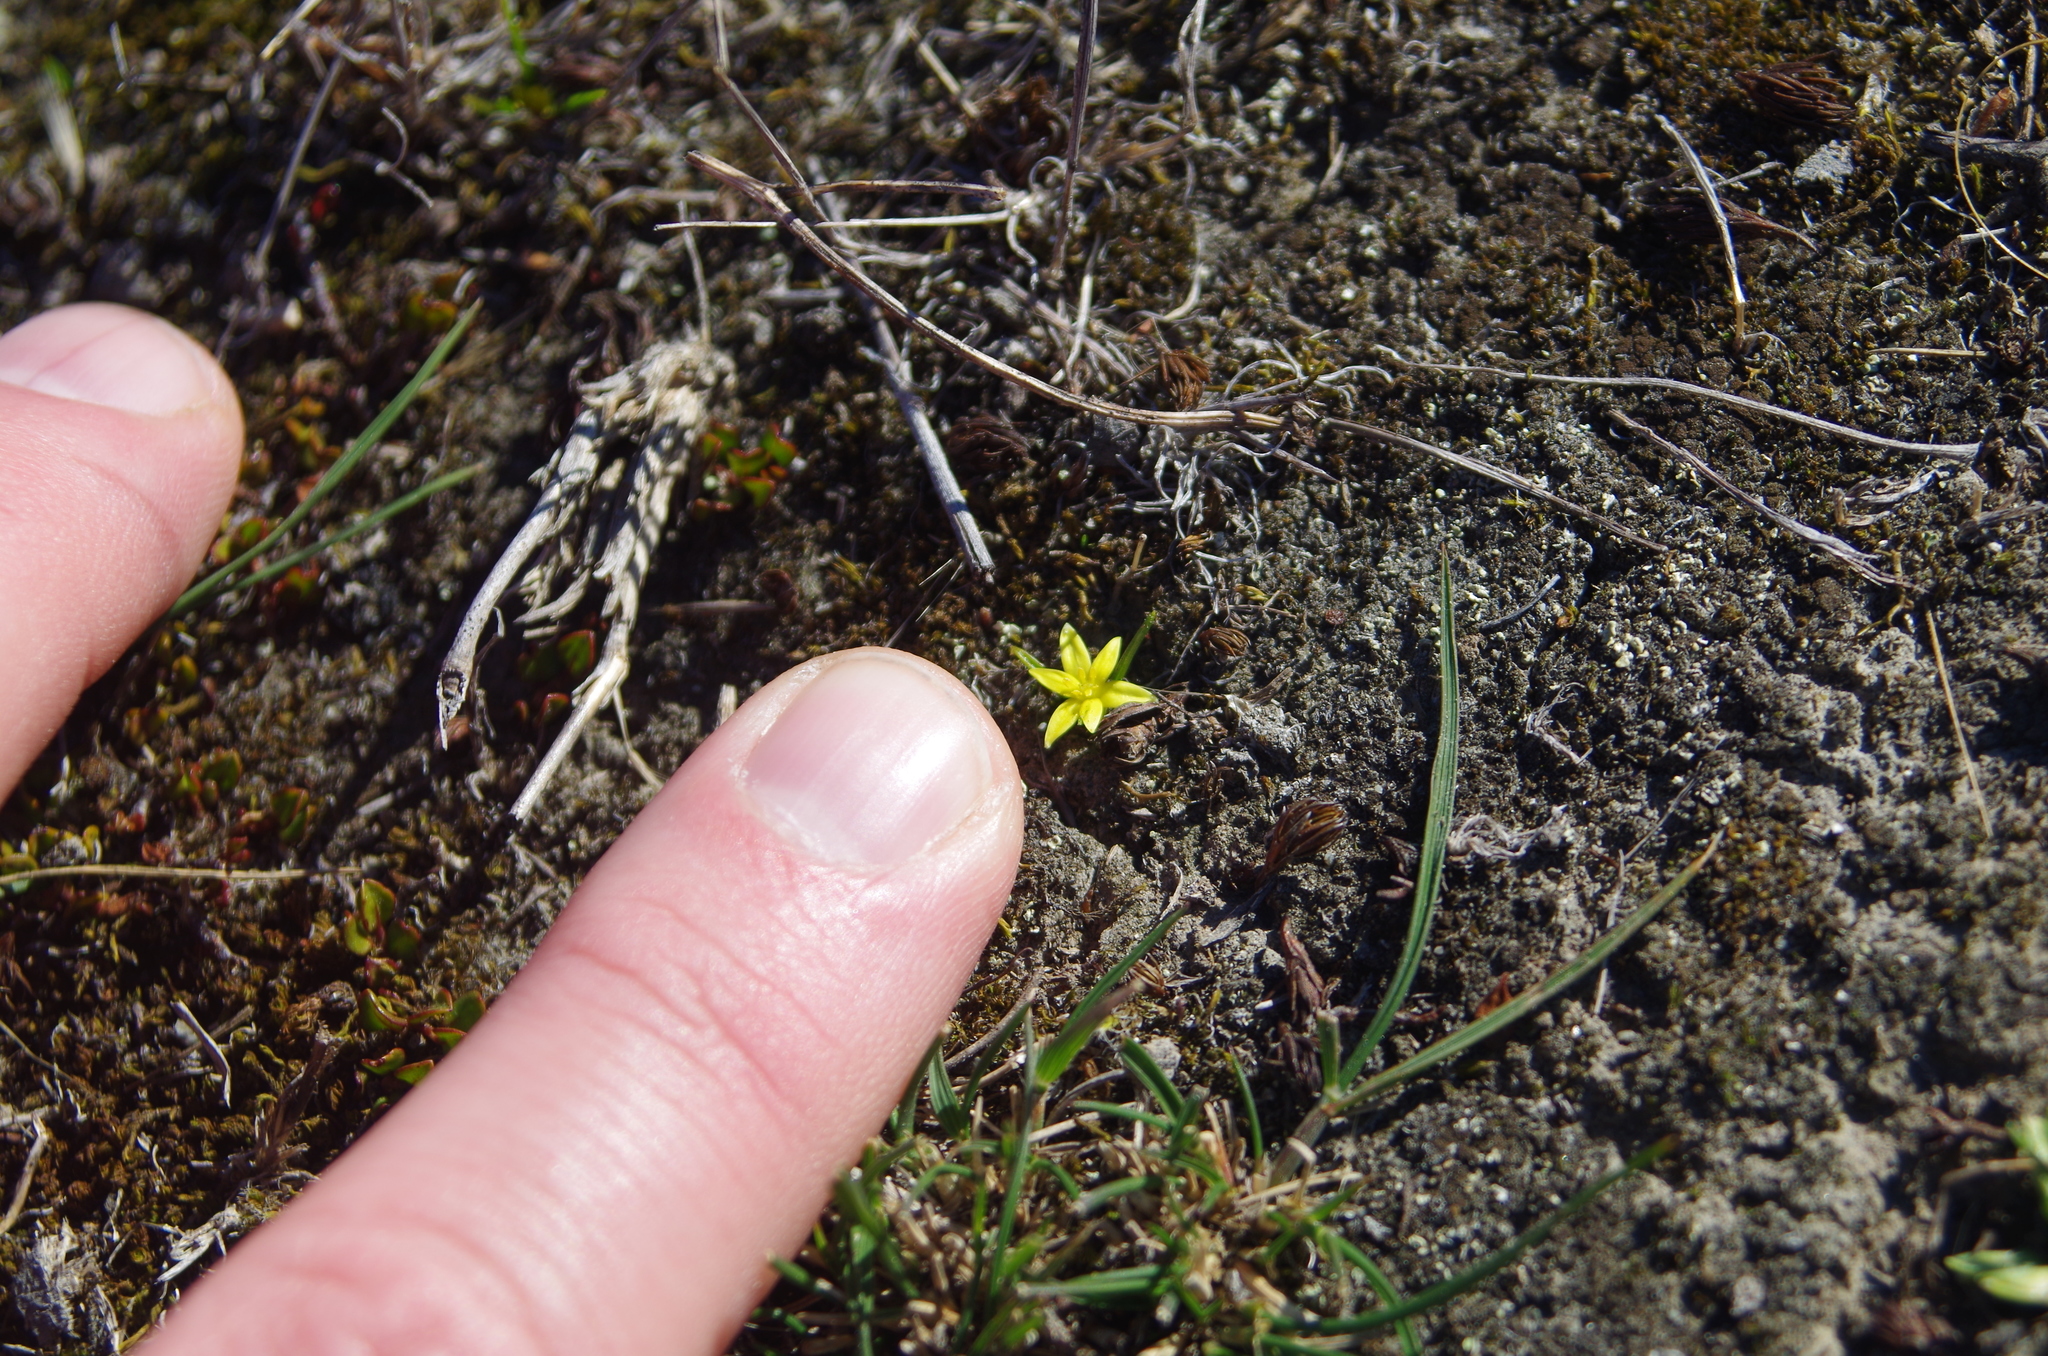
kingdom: Plantae
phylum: Tracheophyta
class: Liliopsida
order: Asparagales
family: Hypoxidaceae
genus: Pauridia
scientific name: Pauridia glabella
